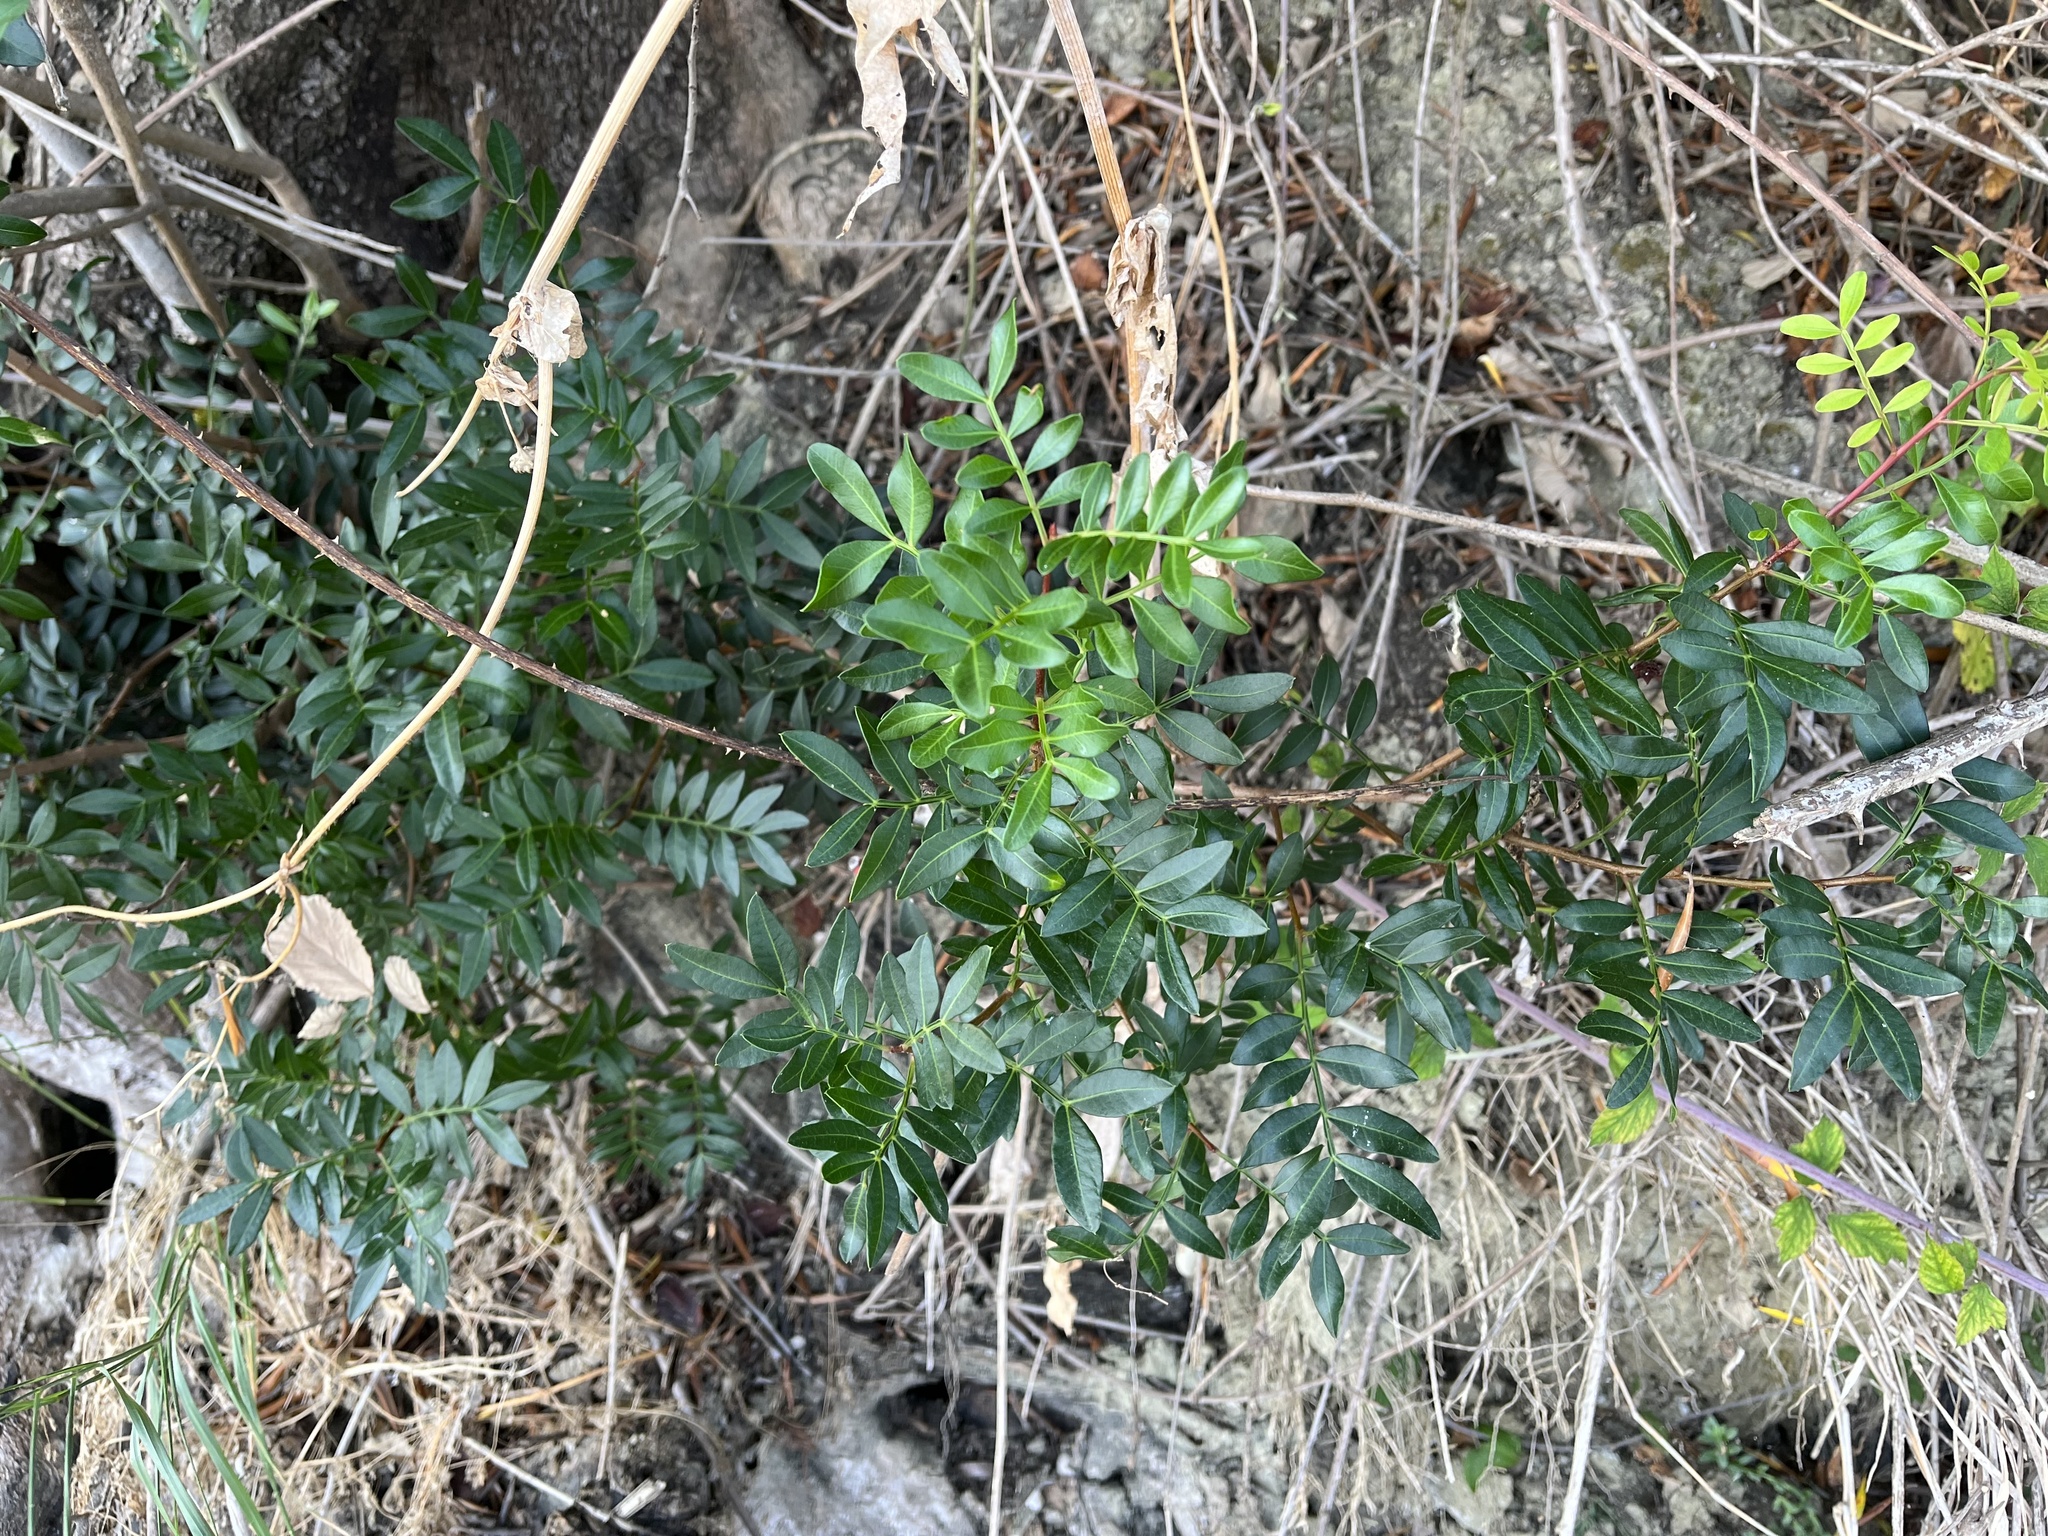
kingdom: Plantae
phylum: Tracheophyta
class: Magnoliopsida
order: Sapindales
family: Anacardiaceae
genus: Pistacia
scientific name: Pistacia lentiscus
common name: Lentisk
